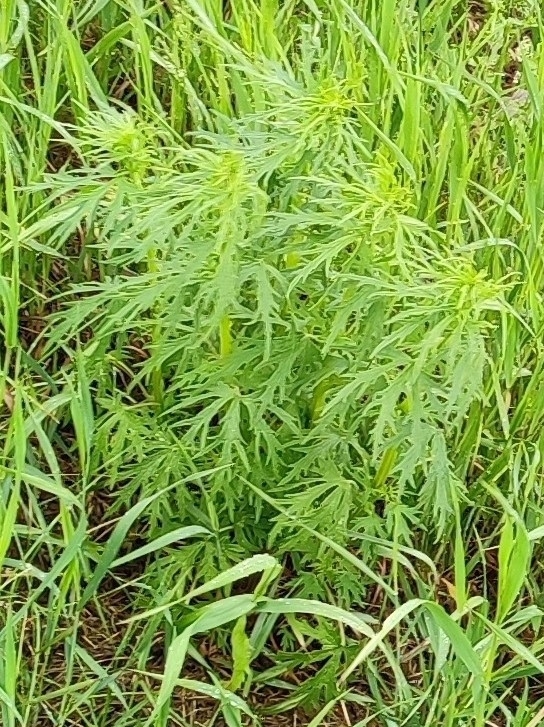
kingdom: Plantae
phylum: Tracheophyta
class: Magnoliopsida
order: Lamiales
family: Lamiaceae
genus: Leonurus
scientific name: Leonurus glaucescens
